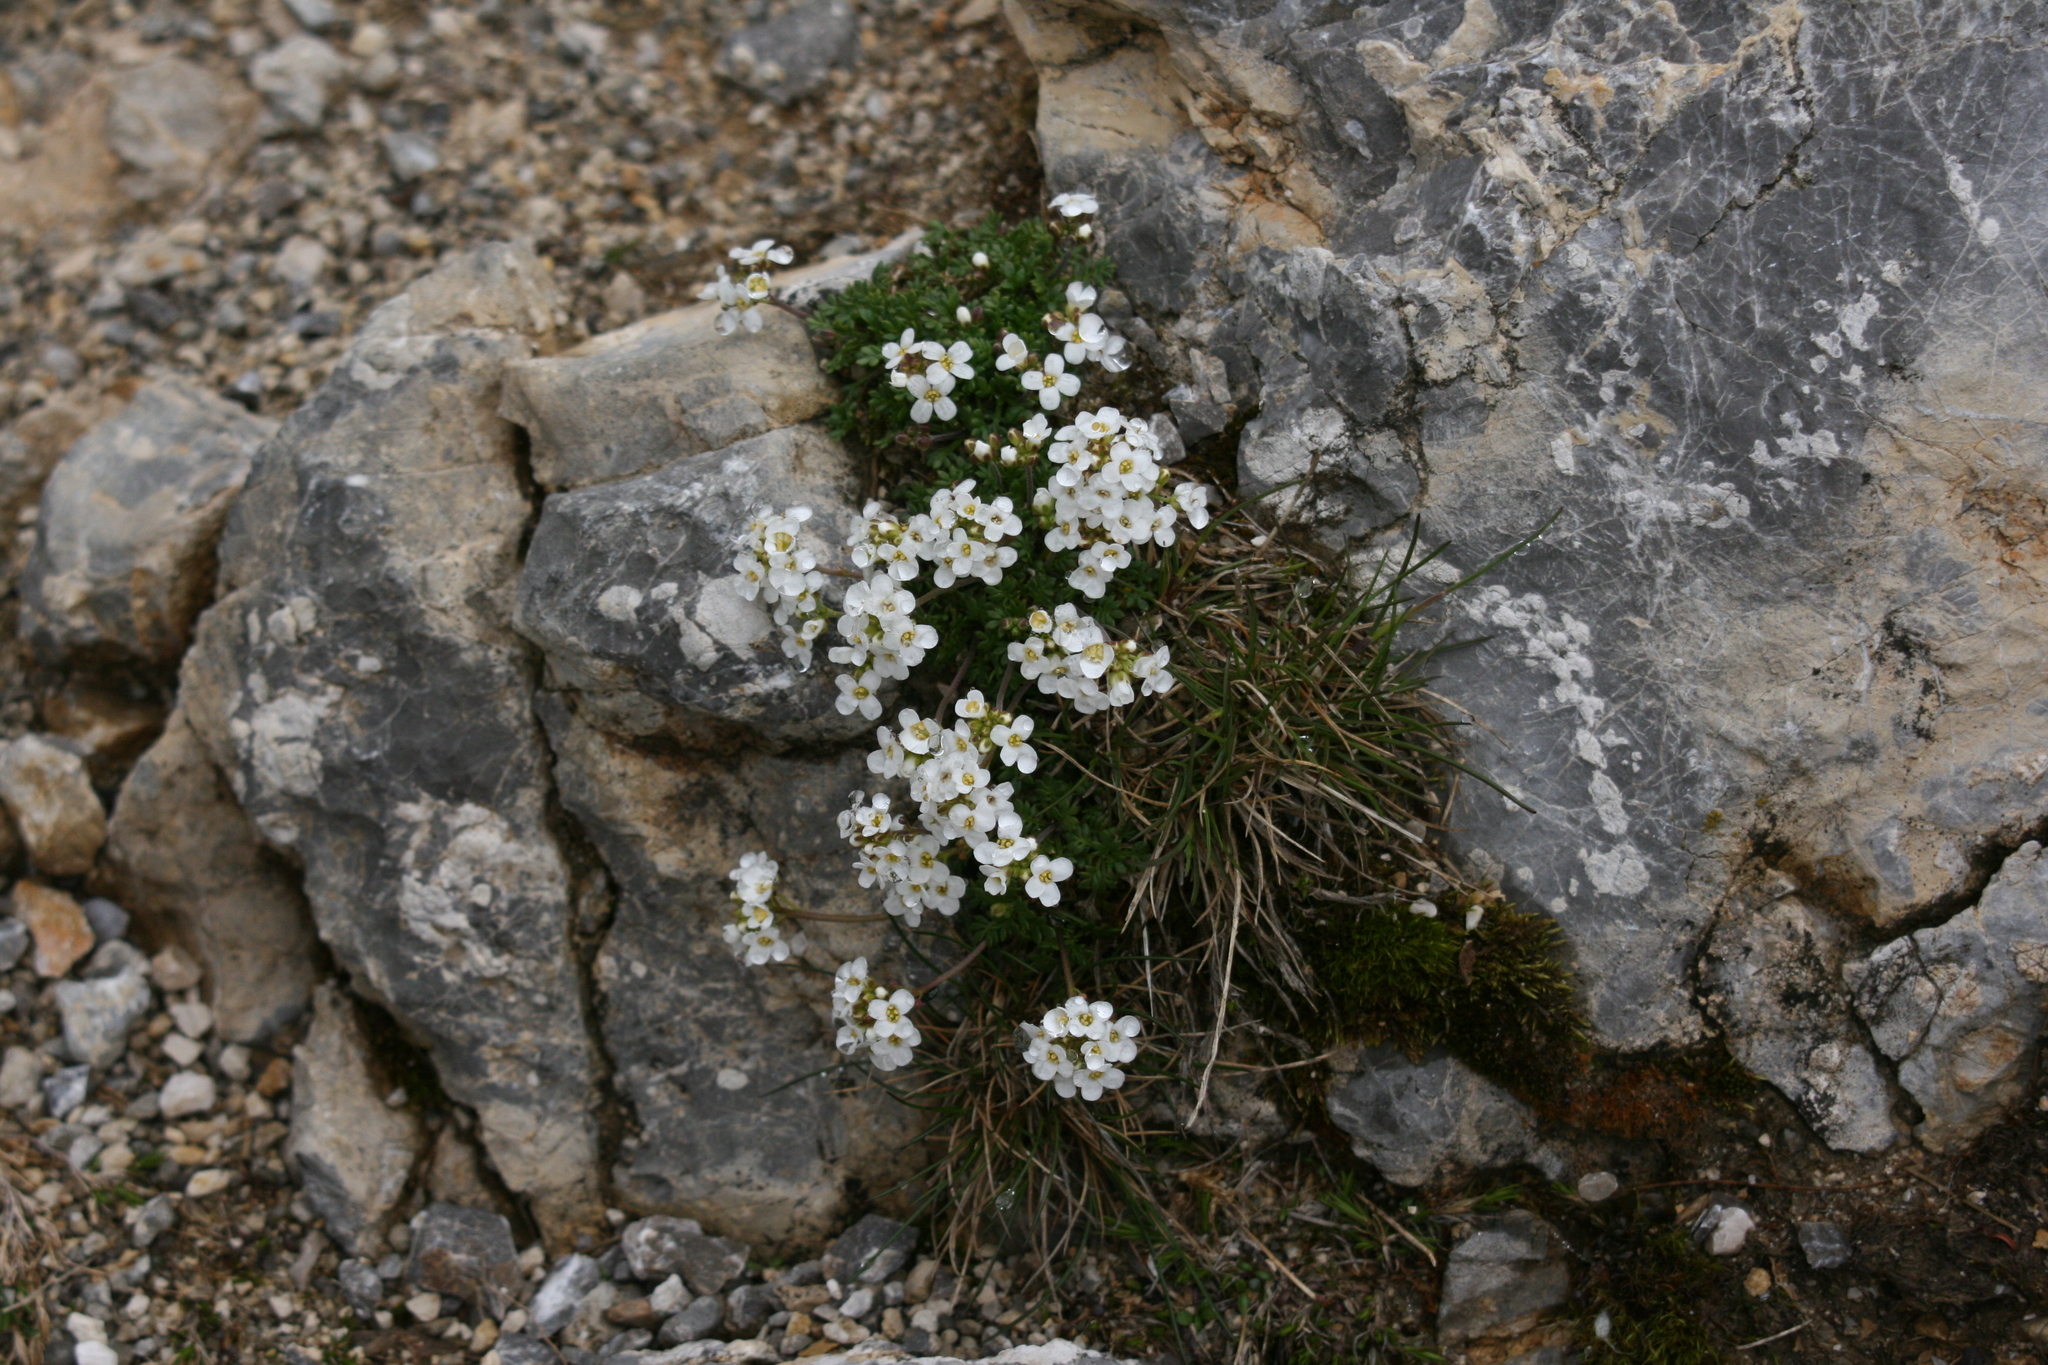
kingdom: Plantae
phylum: Tracheophyta
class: Magnoliopsida
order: Brassicales
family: Brassicaceae
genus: Hornungia
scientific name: Hornungia alpina
